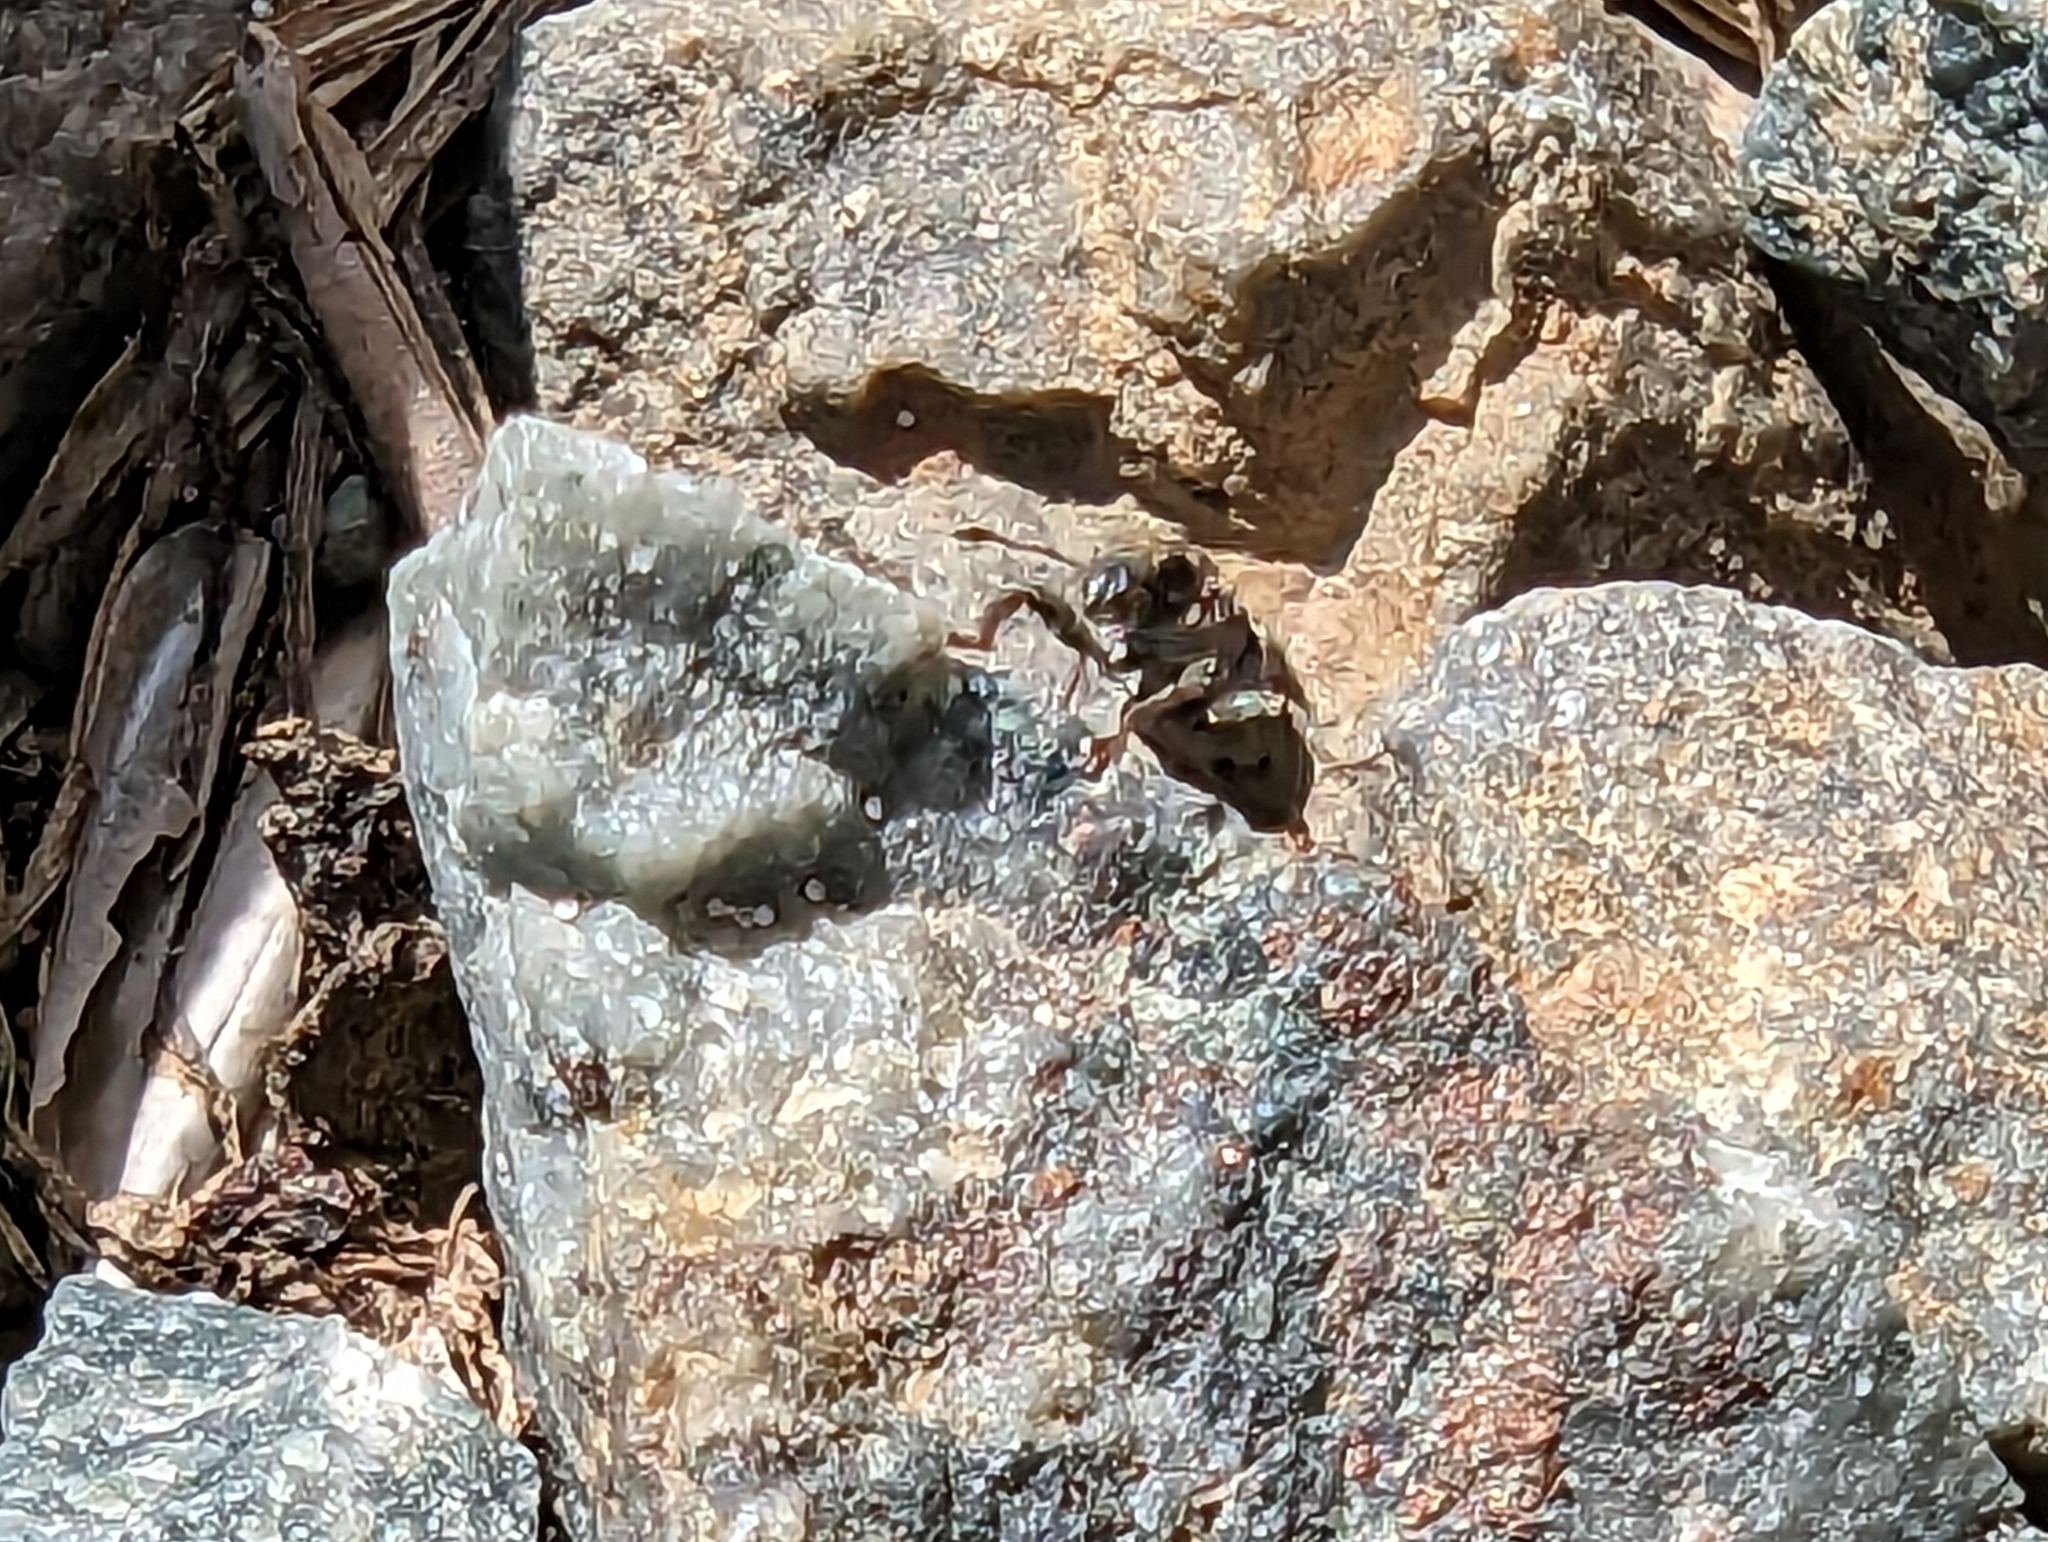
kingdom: Animalia
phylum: Arthropoda
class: Insecta
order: Coleoptera
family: Curculionidae
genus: Sitona
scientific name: Sitona hispidulus
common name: Clover weevil
